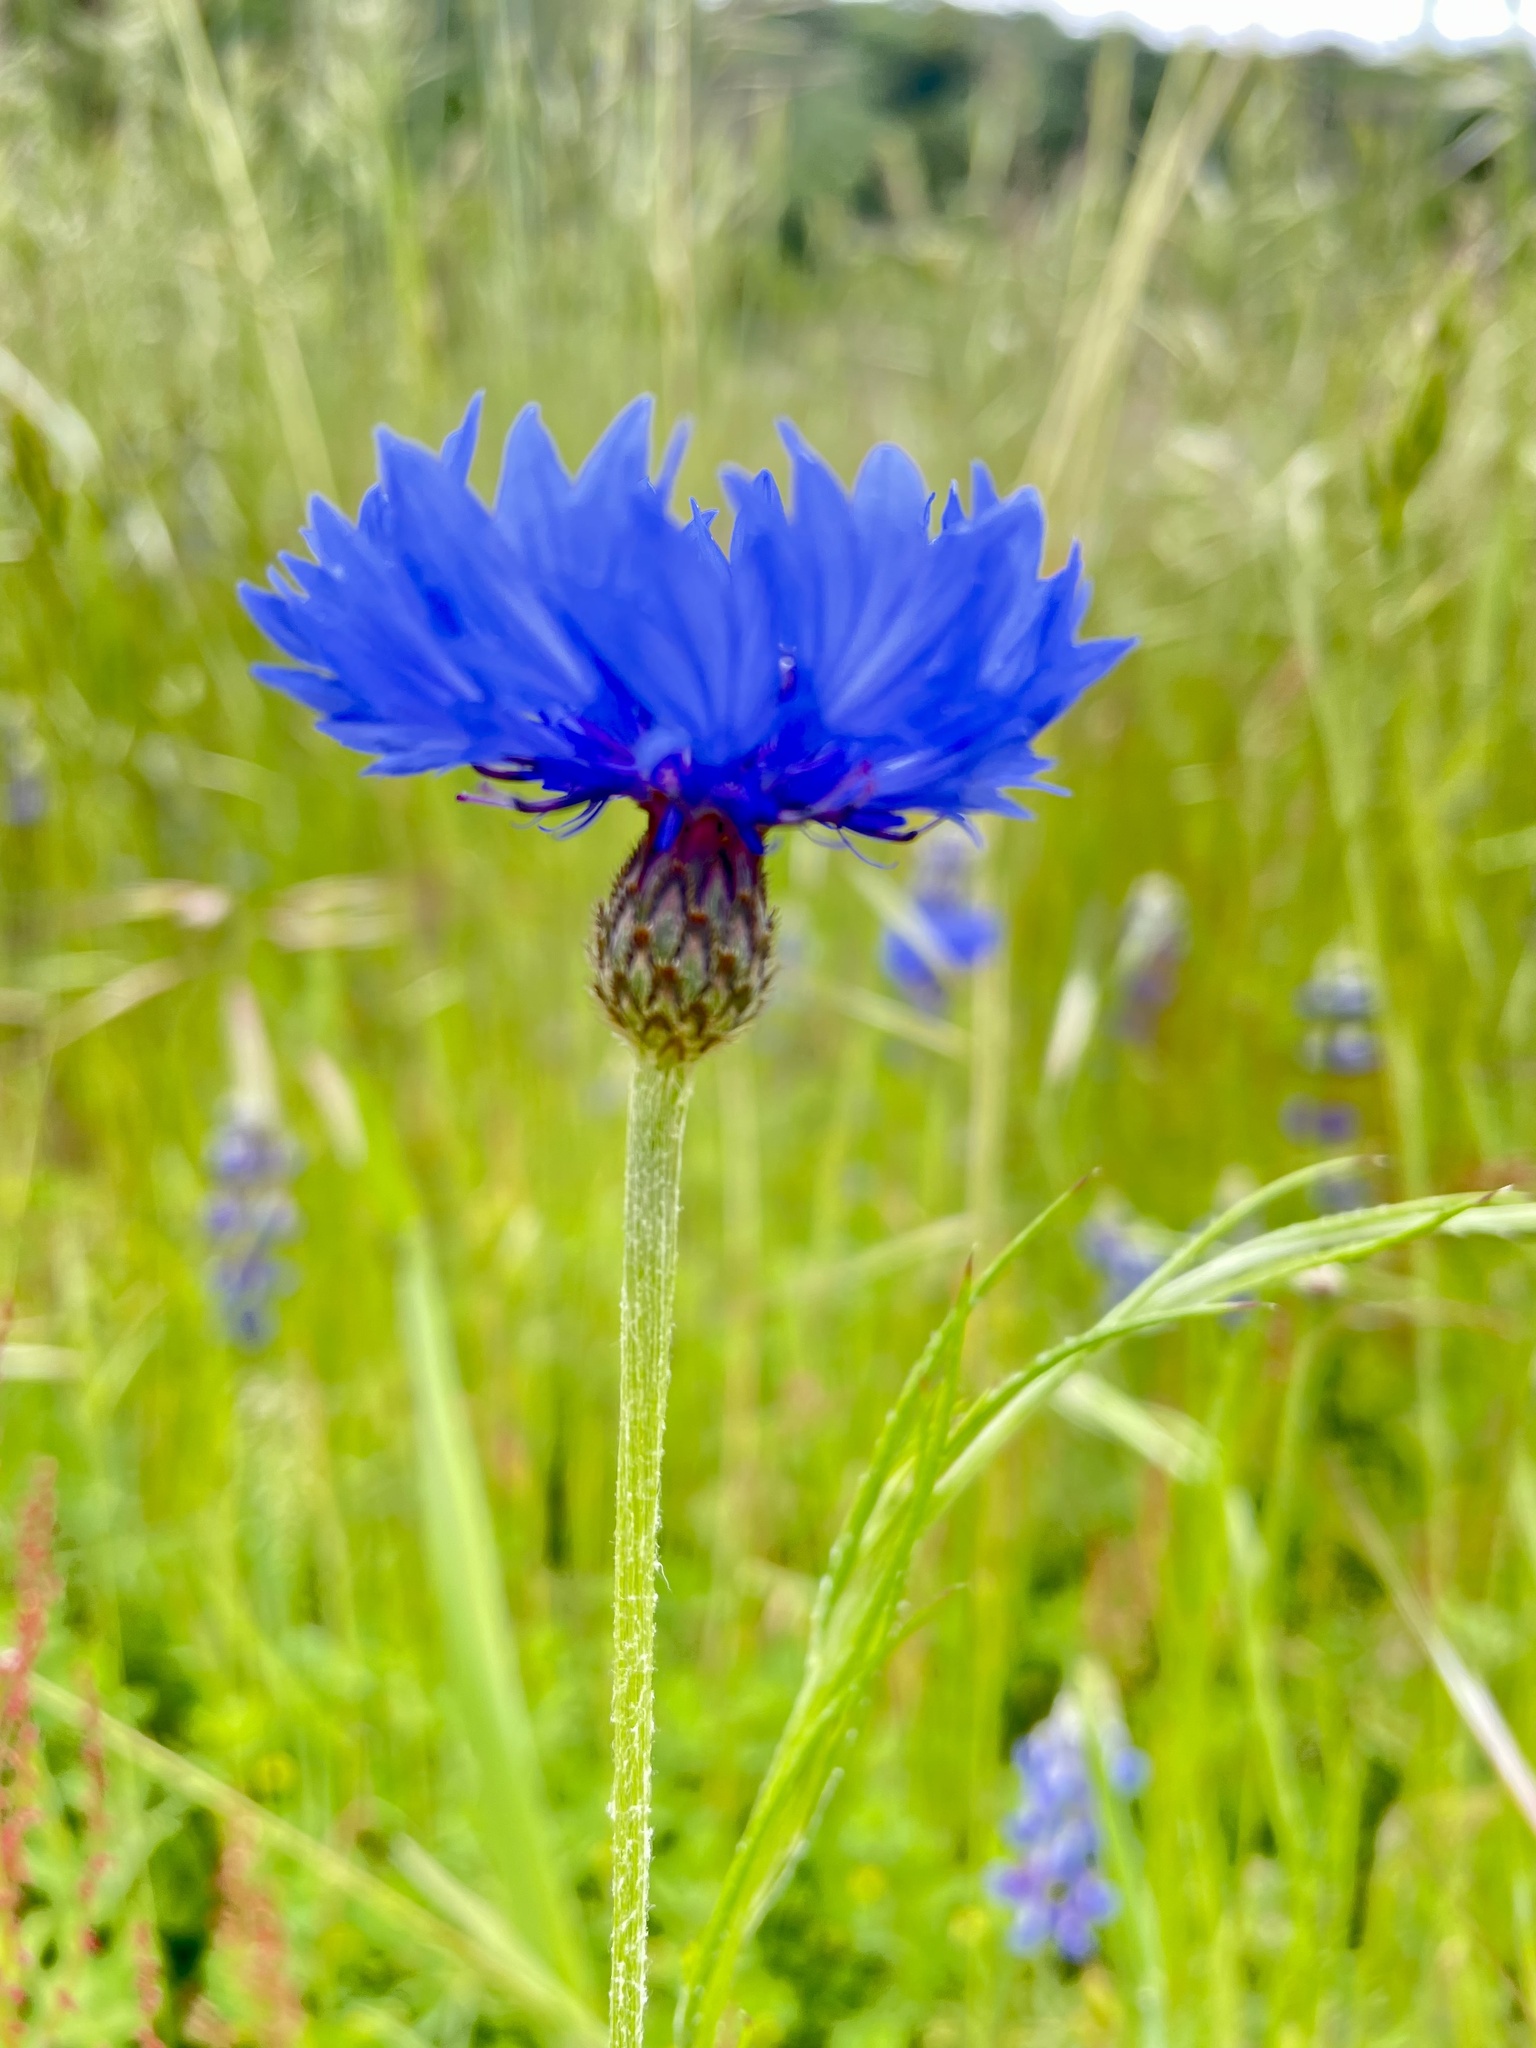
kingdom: Plantae
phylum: Tracheophyta
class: Magnoliopsida
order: Asterales
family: Asteraceae
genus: Centaurea
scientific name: Centaurea cyanus
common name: Cornflower
